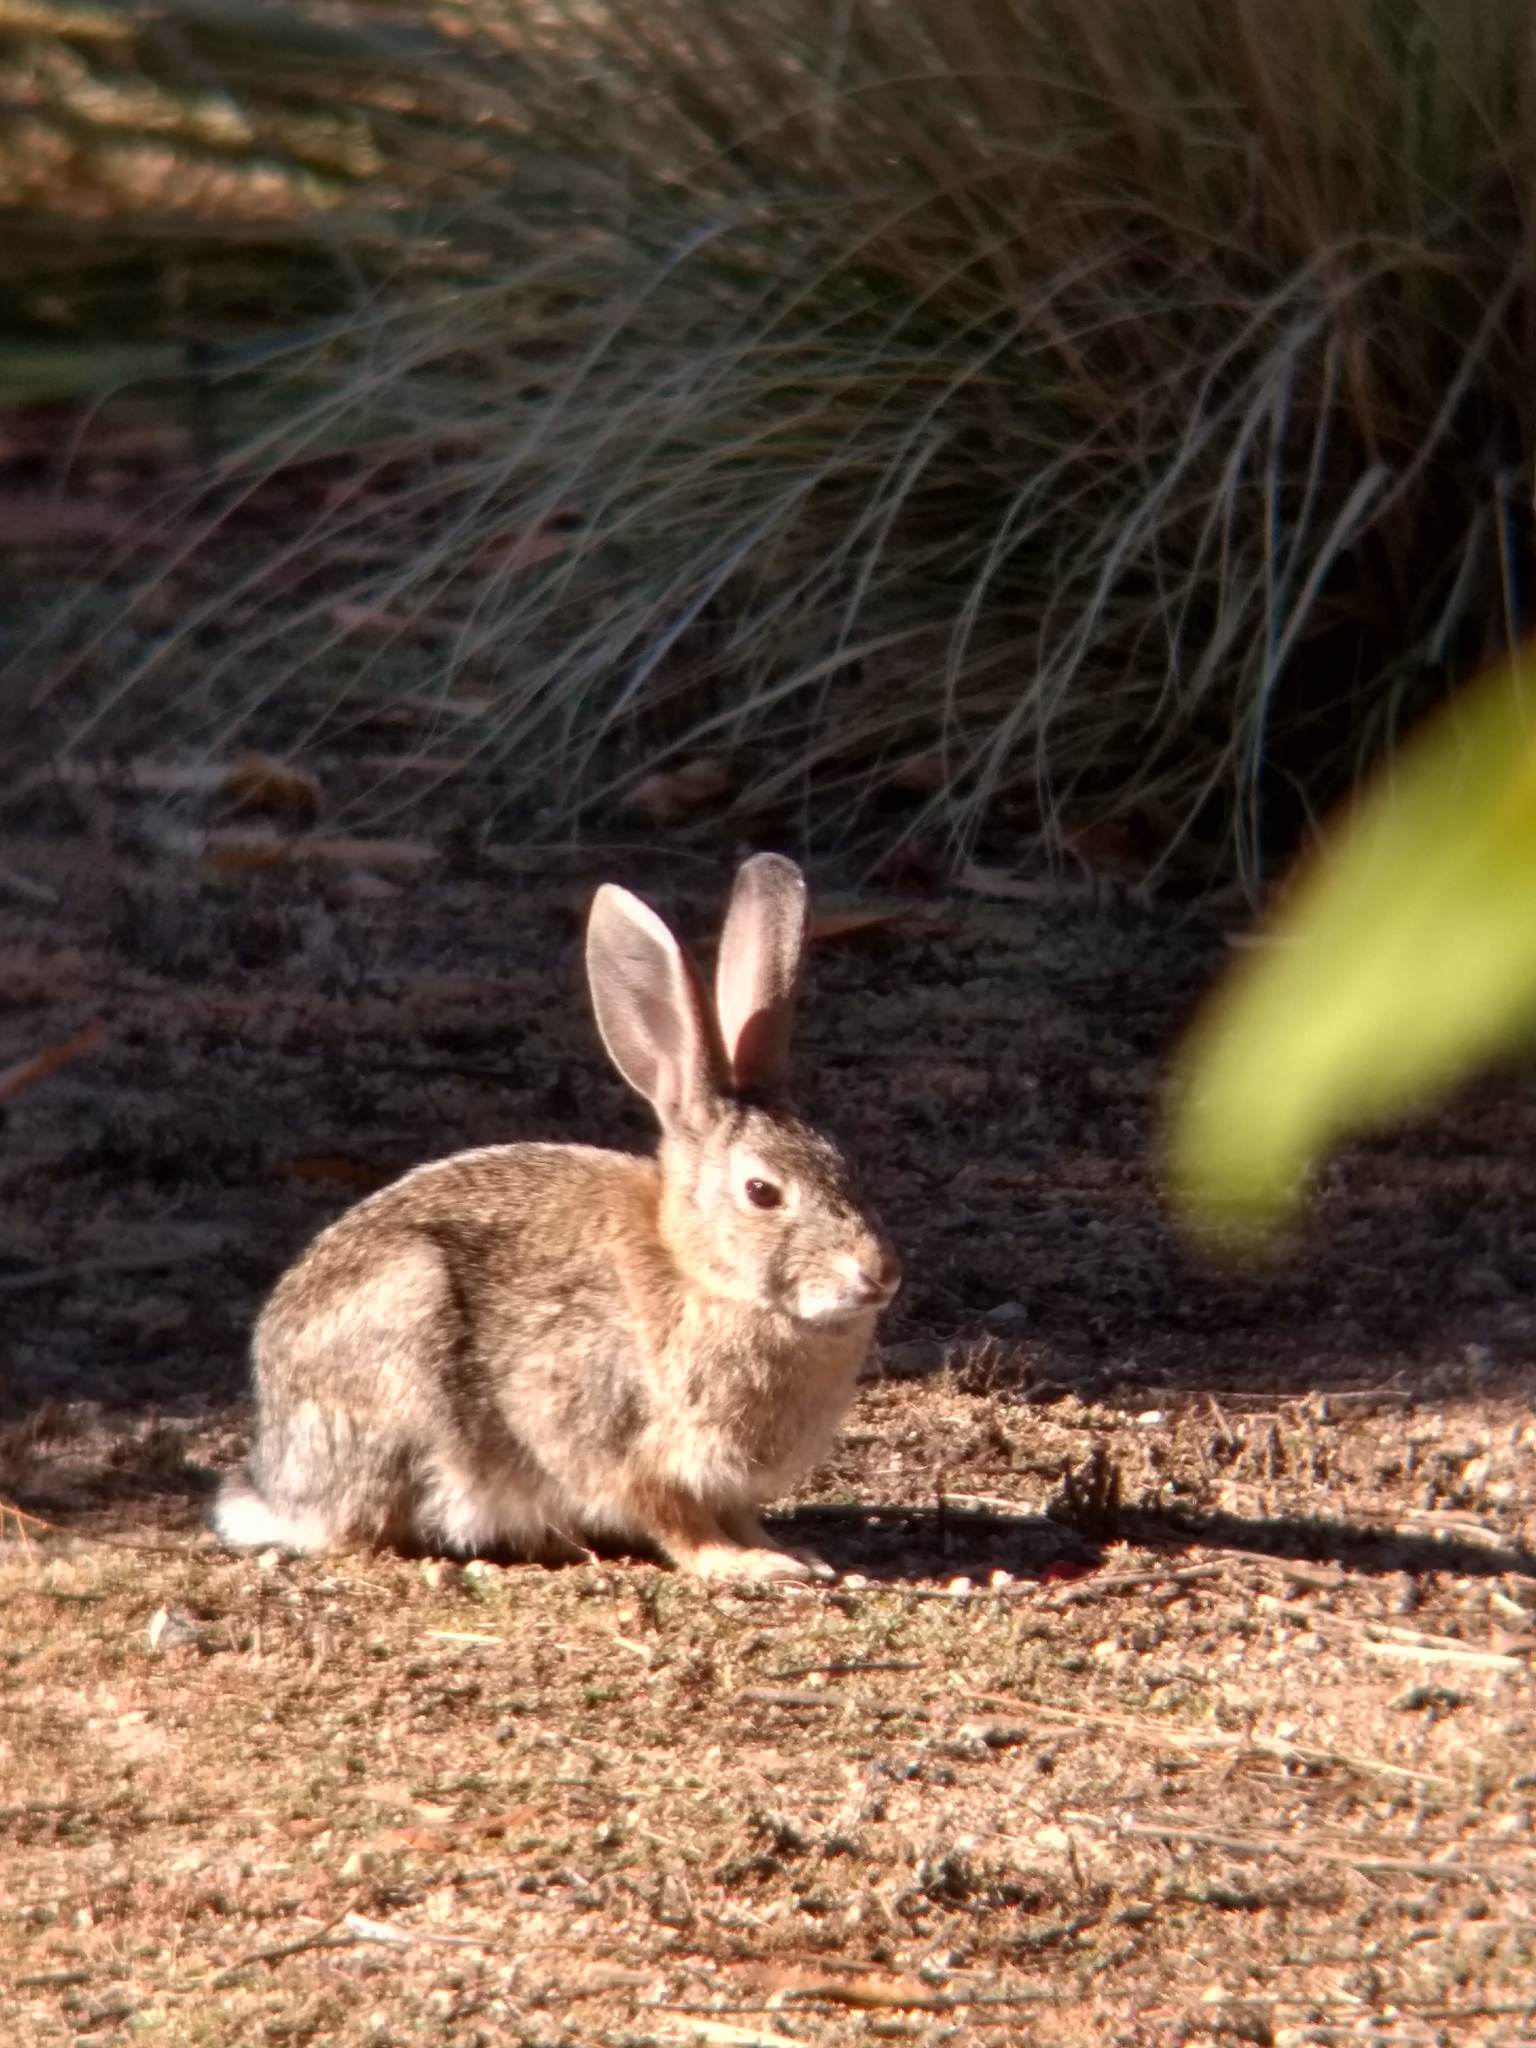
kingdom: Animalia
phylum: Chordata
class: Mammalia
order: Lagomorpha
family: Leporidae
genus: Lepus
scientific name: Lepus californicus
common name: Black-tailed jackrabbit
